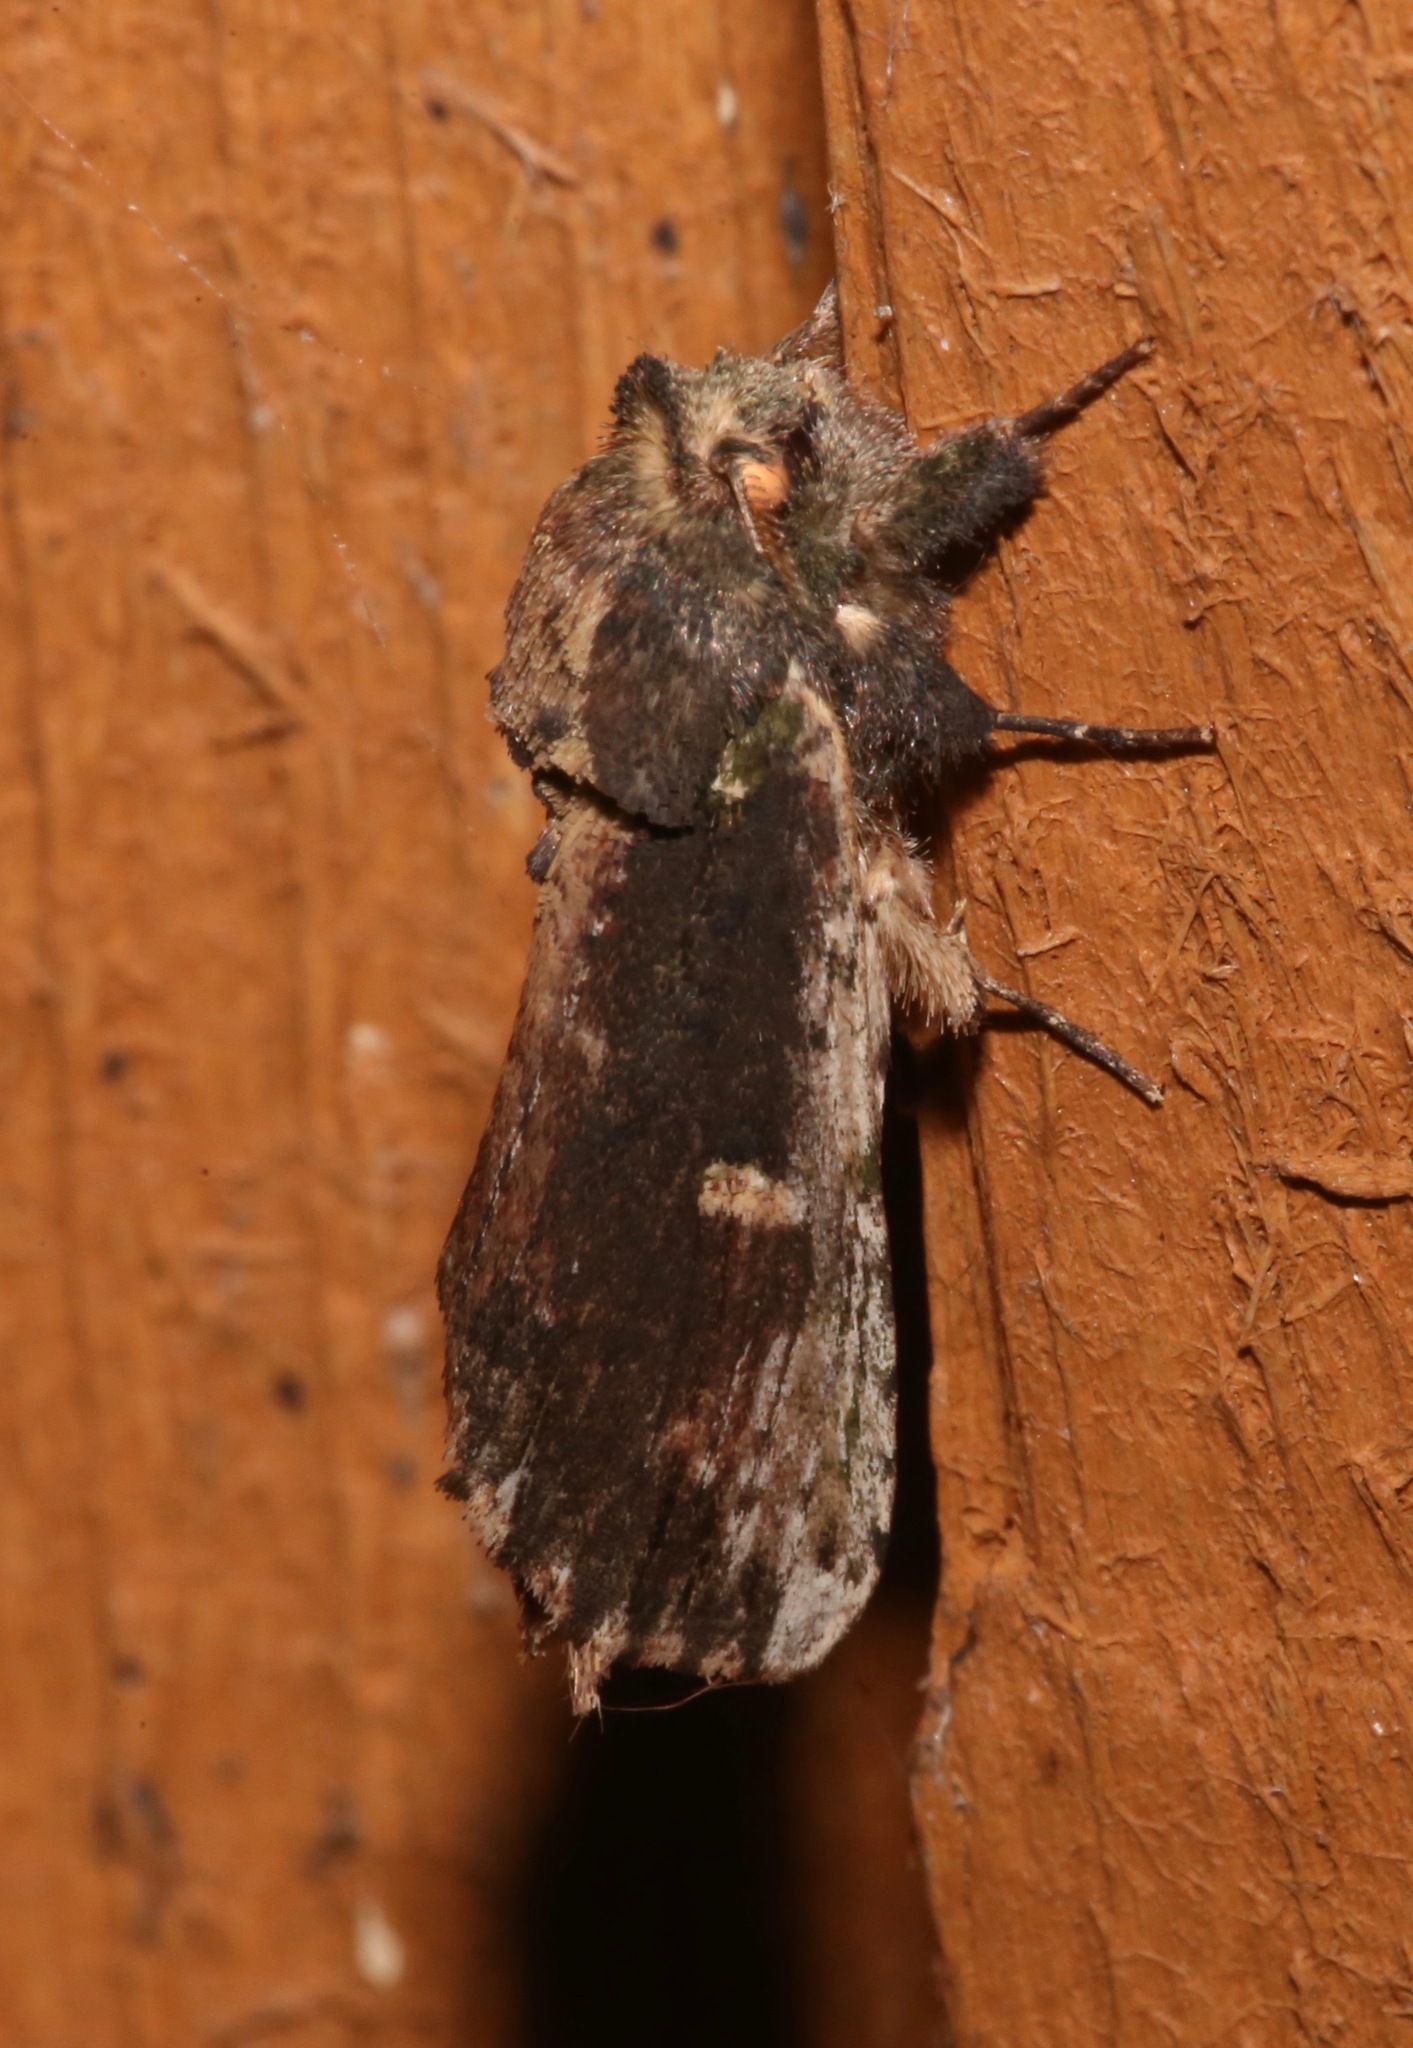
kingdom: Animalia
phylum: Arthropoda
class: Insecta
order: Lepidoptera
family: Notodontidae
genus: Schizura
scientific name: Schizura ipomaeae
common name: Morning-glory prominent
